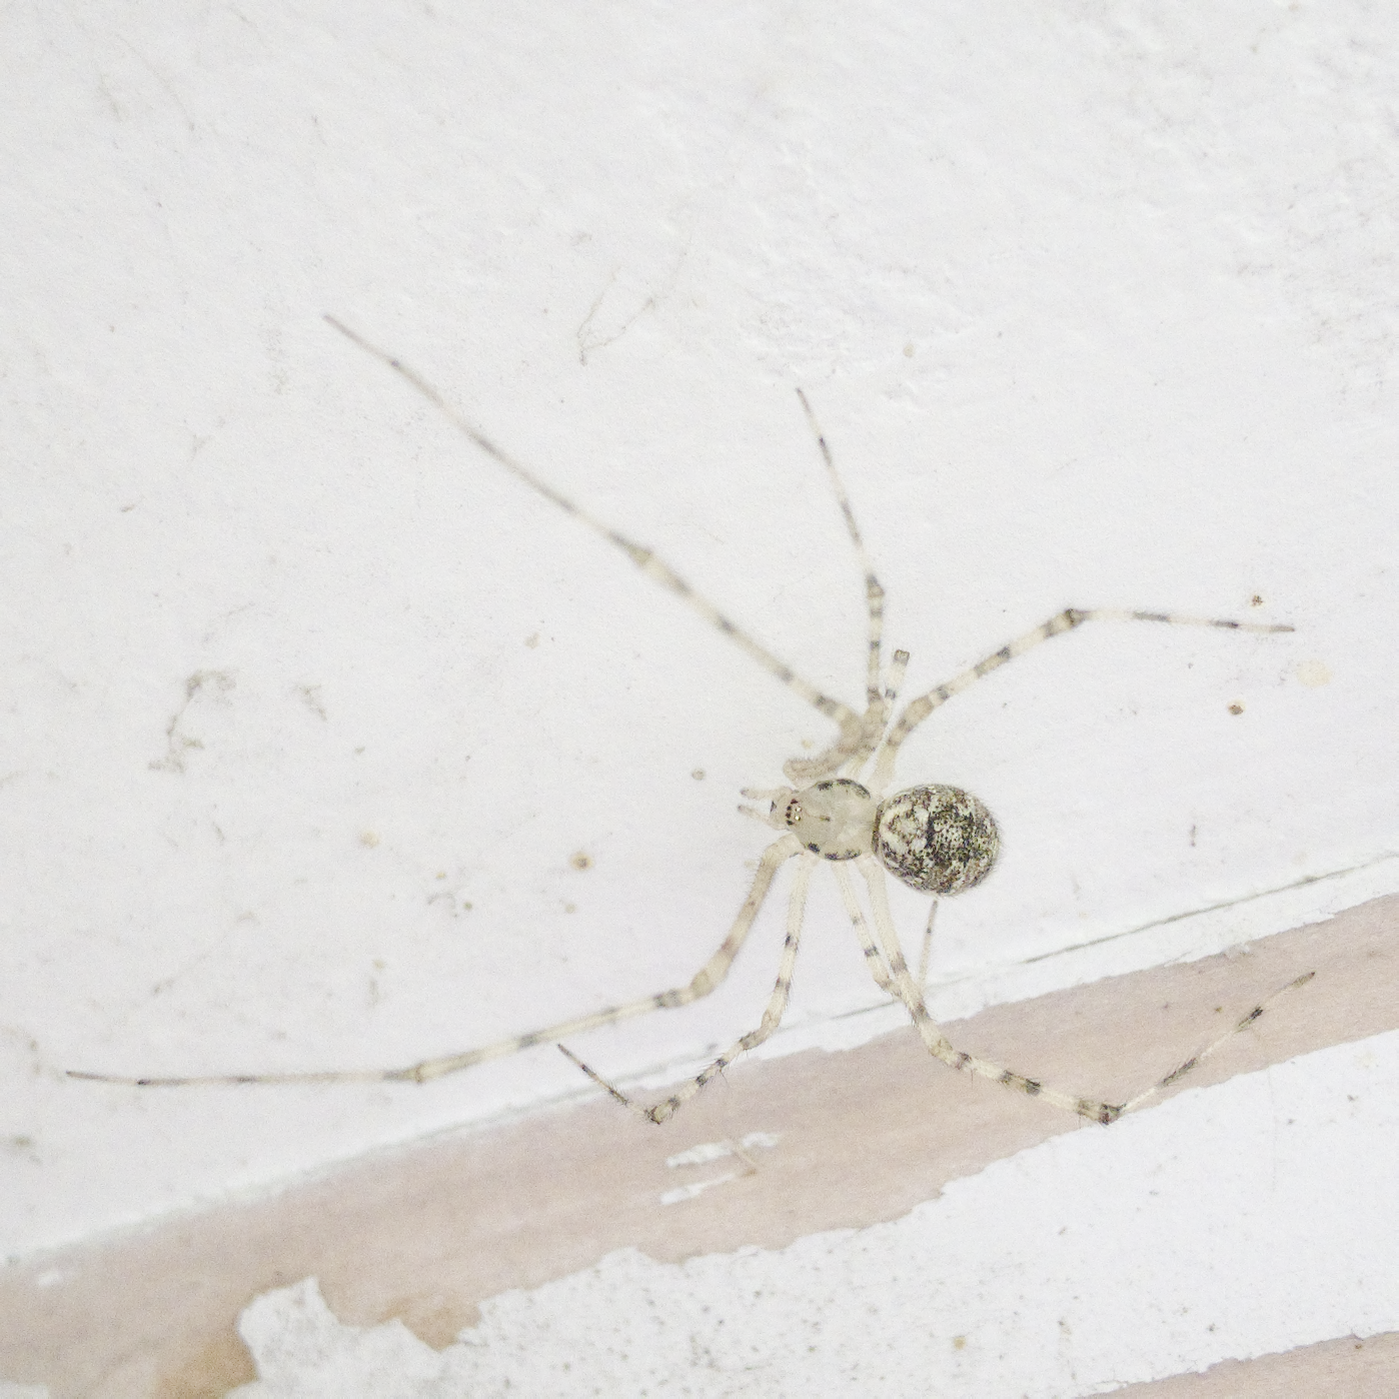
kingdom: Animalia
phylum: Arthropoda
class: Arachnida
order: Araneae
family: Theridiidae
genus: Cryptachaea
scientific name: Cryptachaea gigantipes
